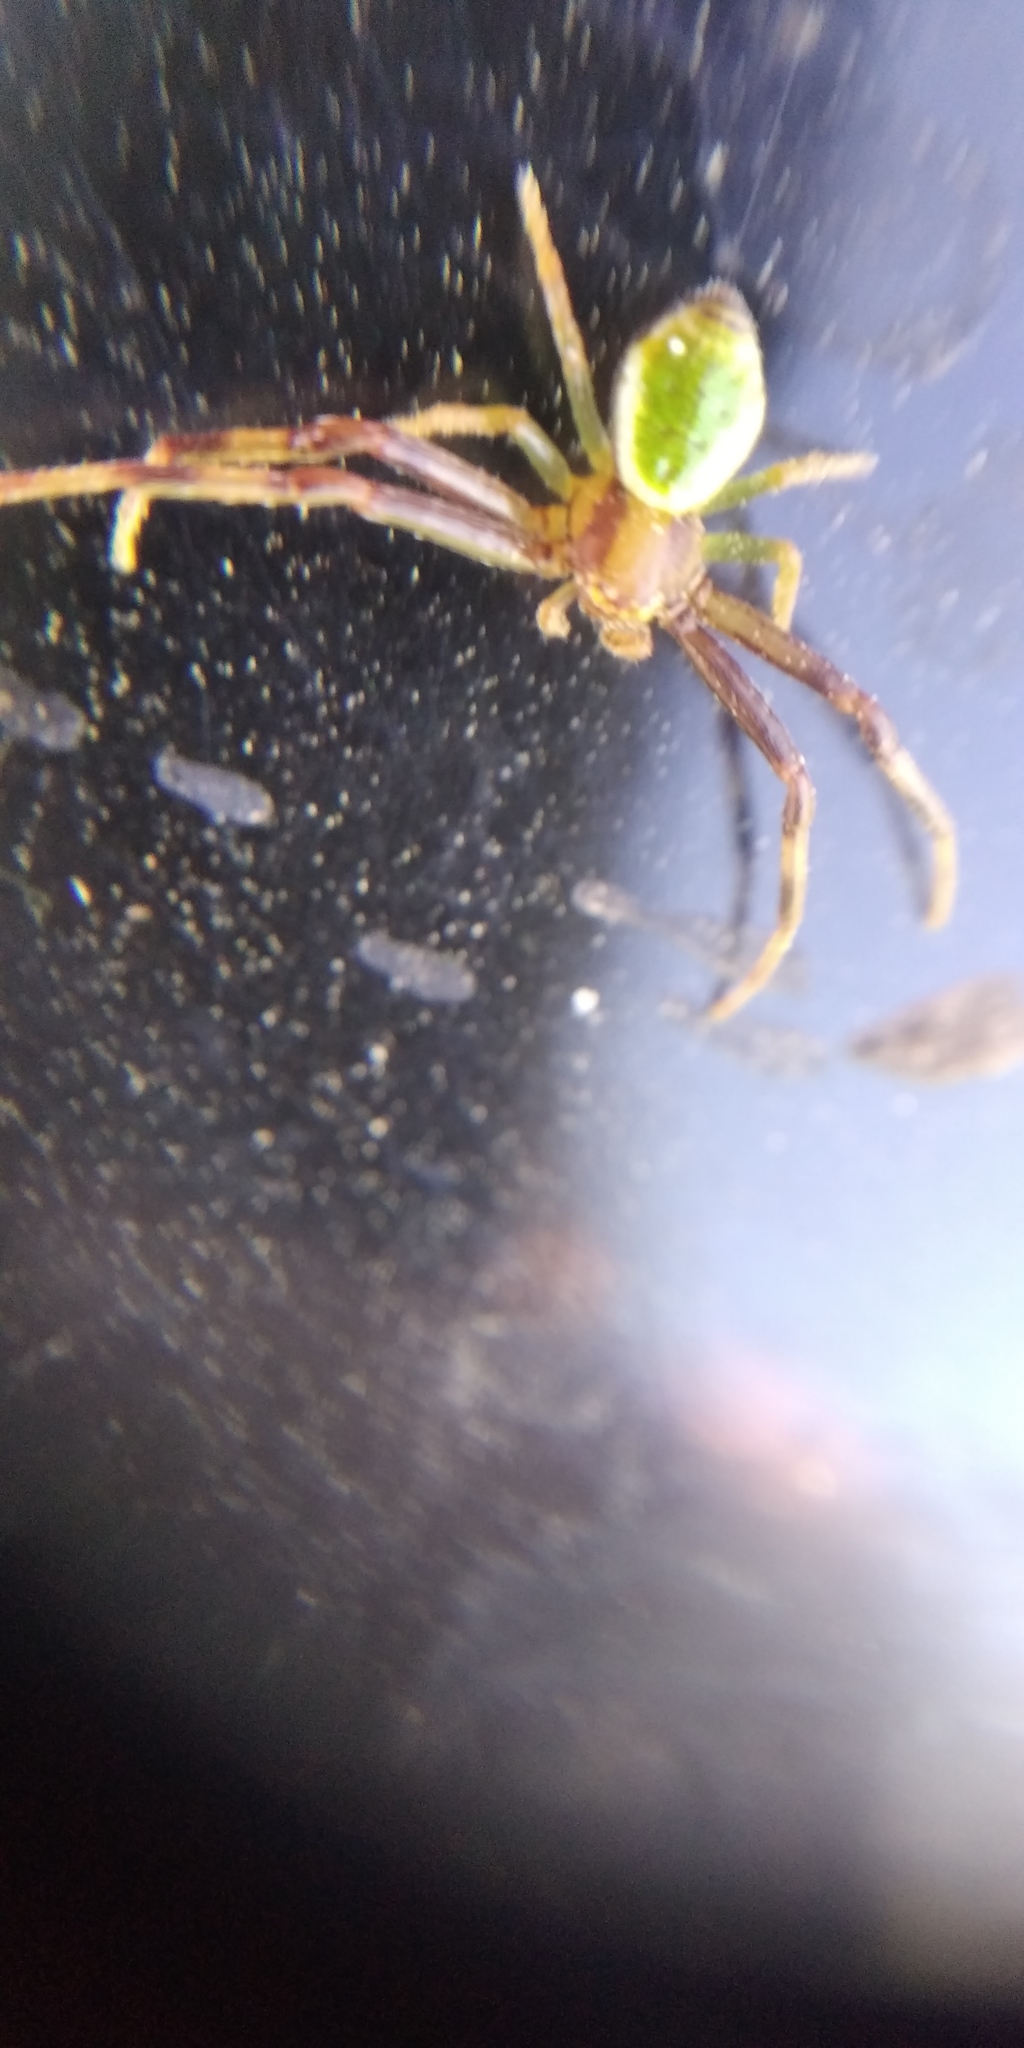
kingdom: Animalia
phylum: Arthropoda
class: Arachnida
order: Araneae
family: Thomisidae
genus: Ebrechtella
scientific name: Ebrechtella tricuspidata
